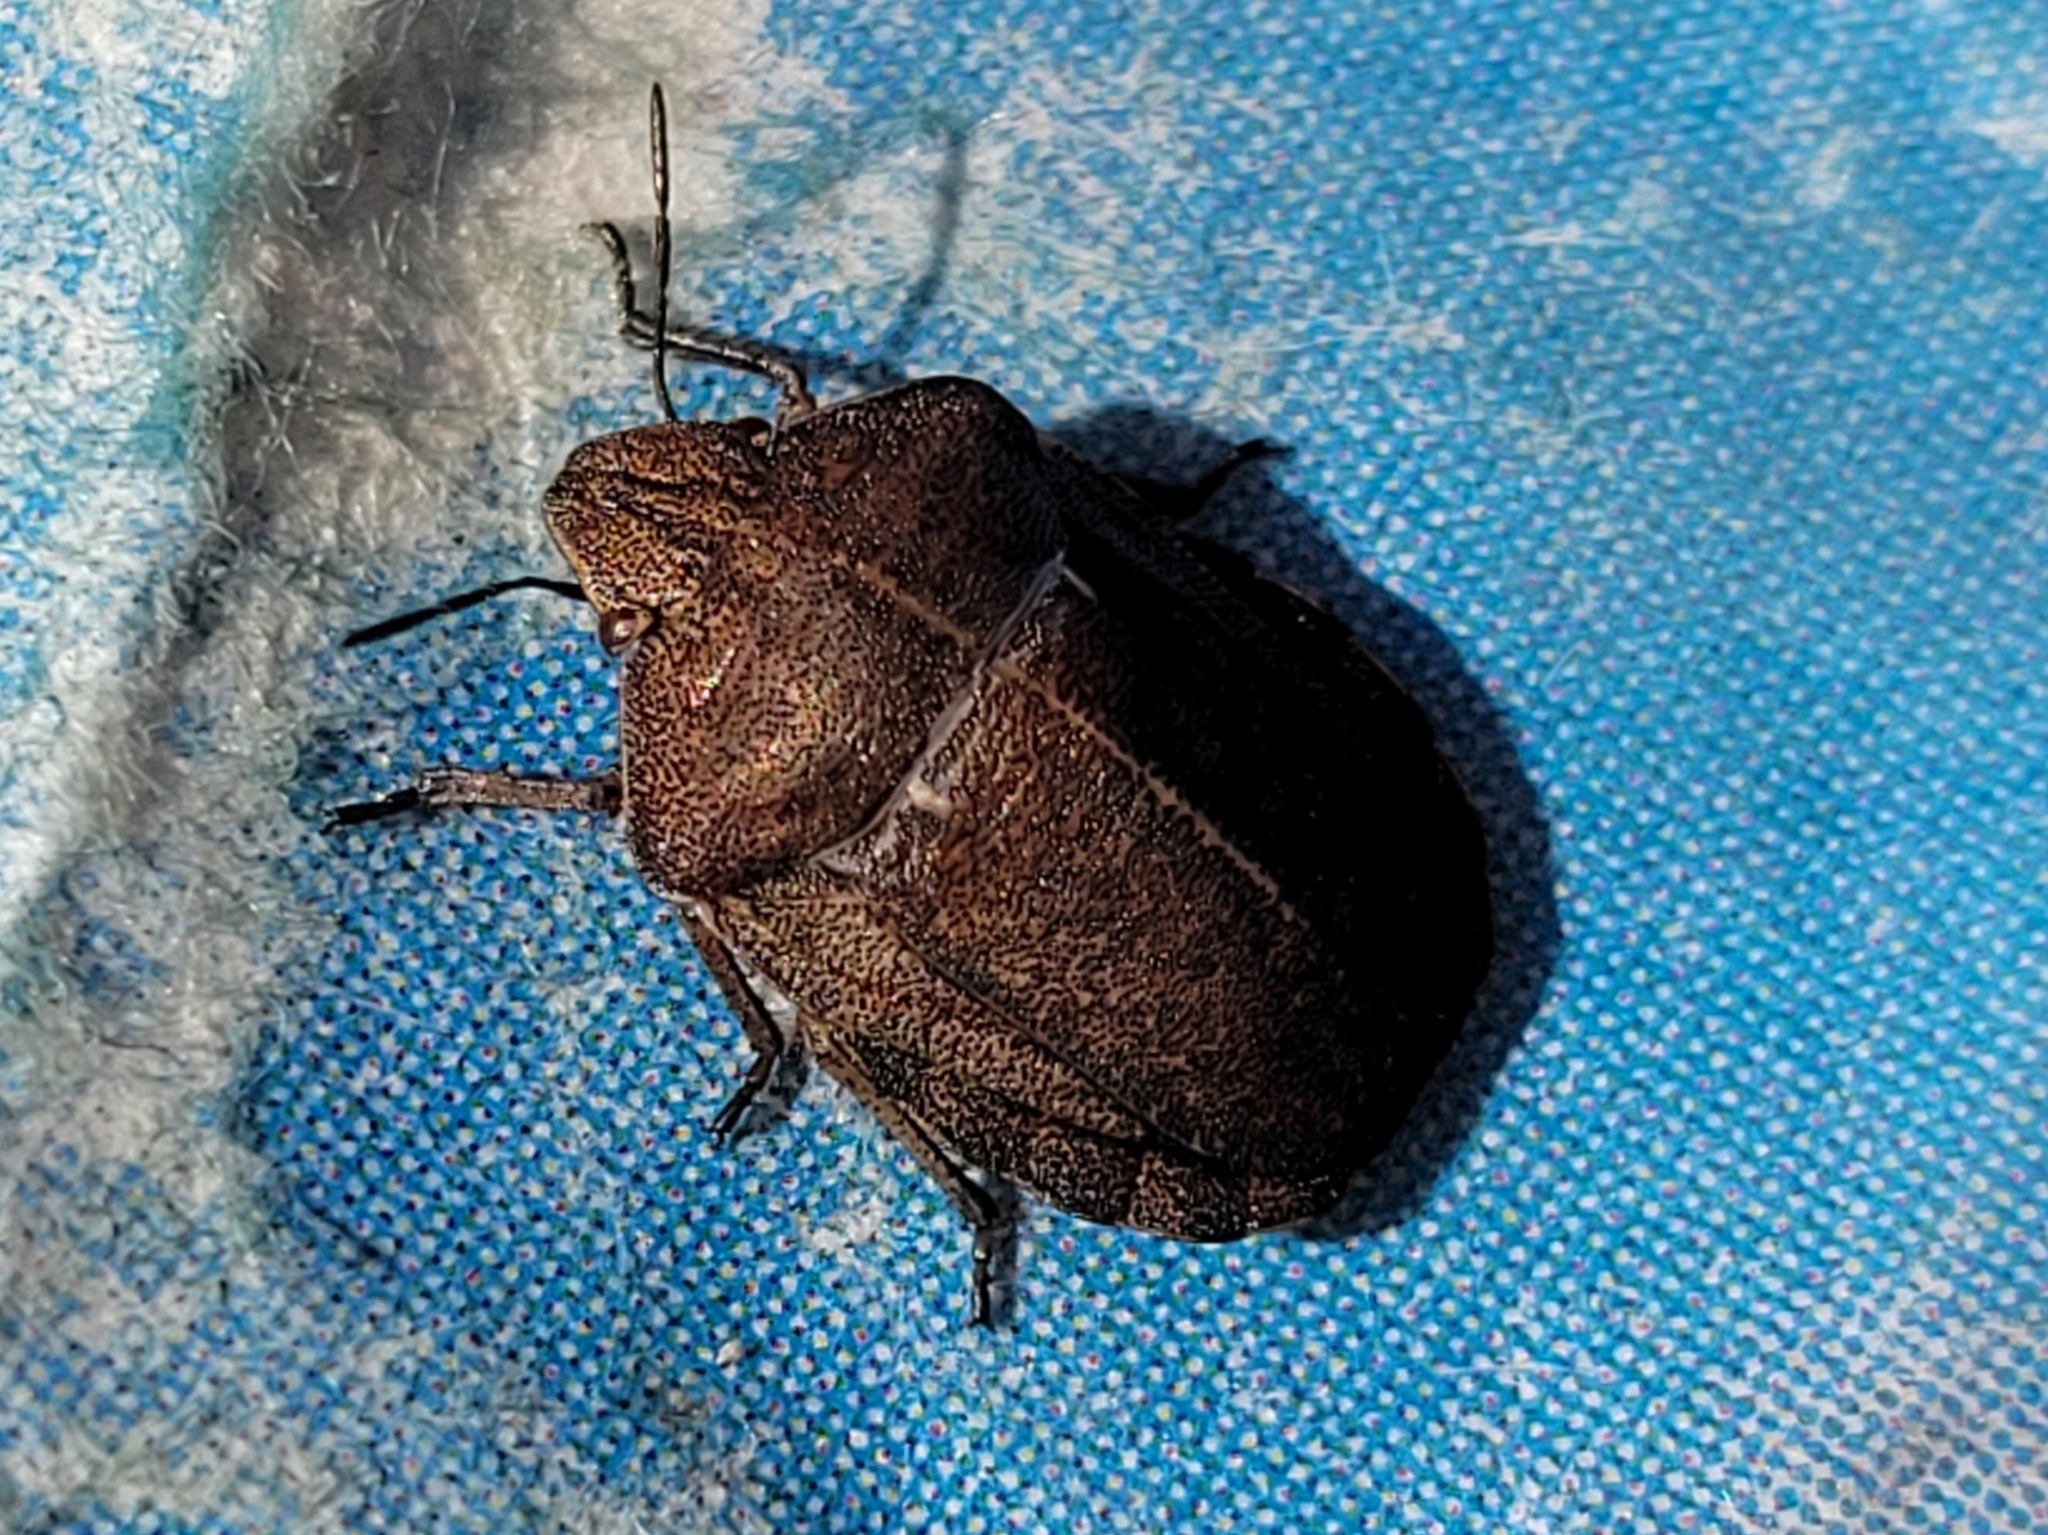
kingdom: Animalia
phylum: Arthropoda
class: Insecta
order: Hemiptera
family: Scutelleridae
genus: Eurygaster
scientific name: Eurygaster testudinaria
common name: Tortoise bug
